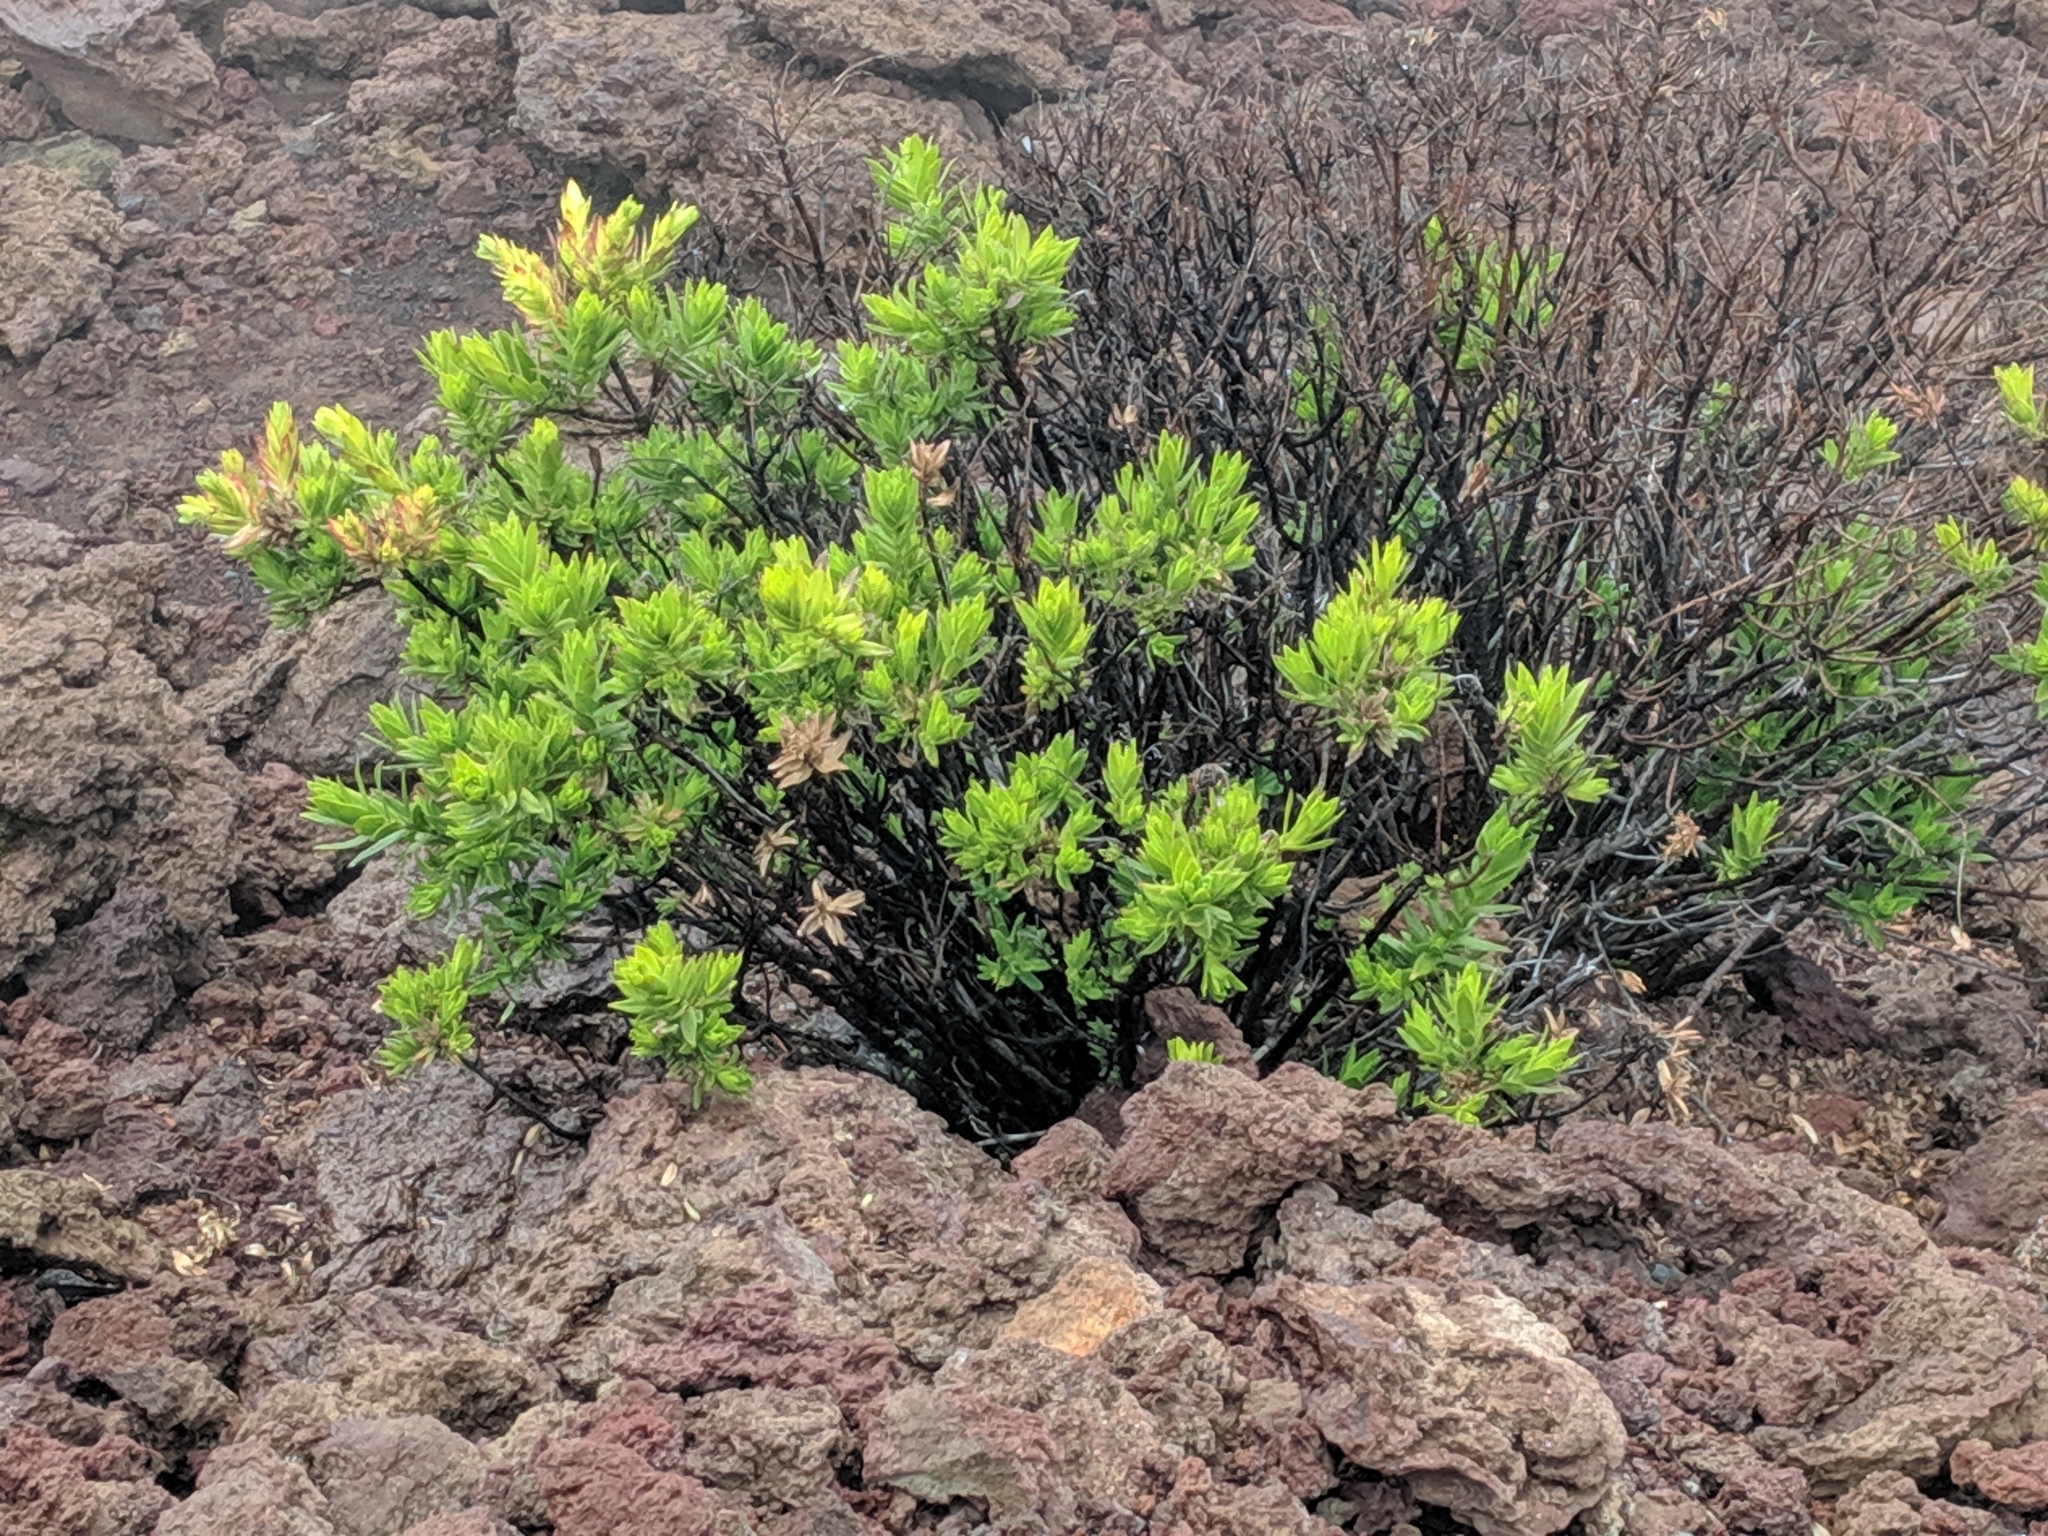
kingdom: Plantae
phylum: Tracheophyta
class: Magnoliopsida
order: Asterales
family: Asteraceae
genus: Dubautia
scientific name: Dubautia menziesii
